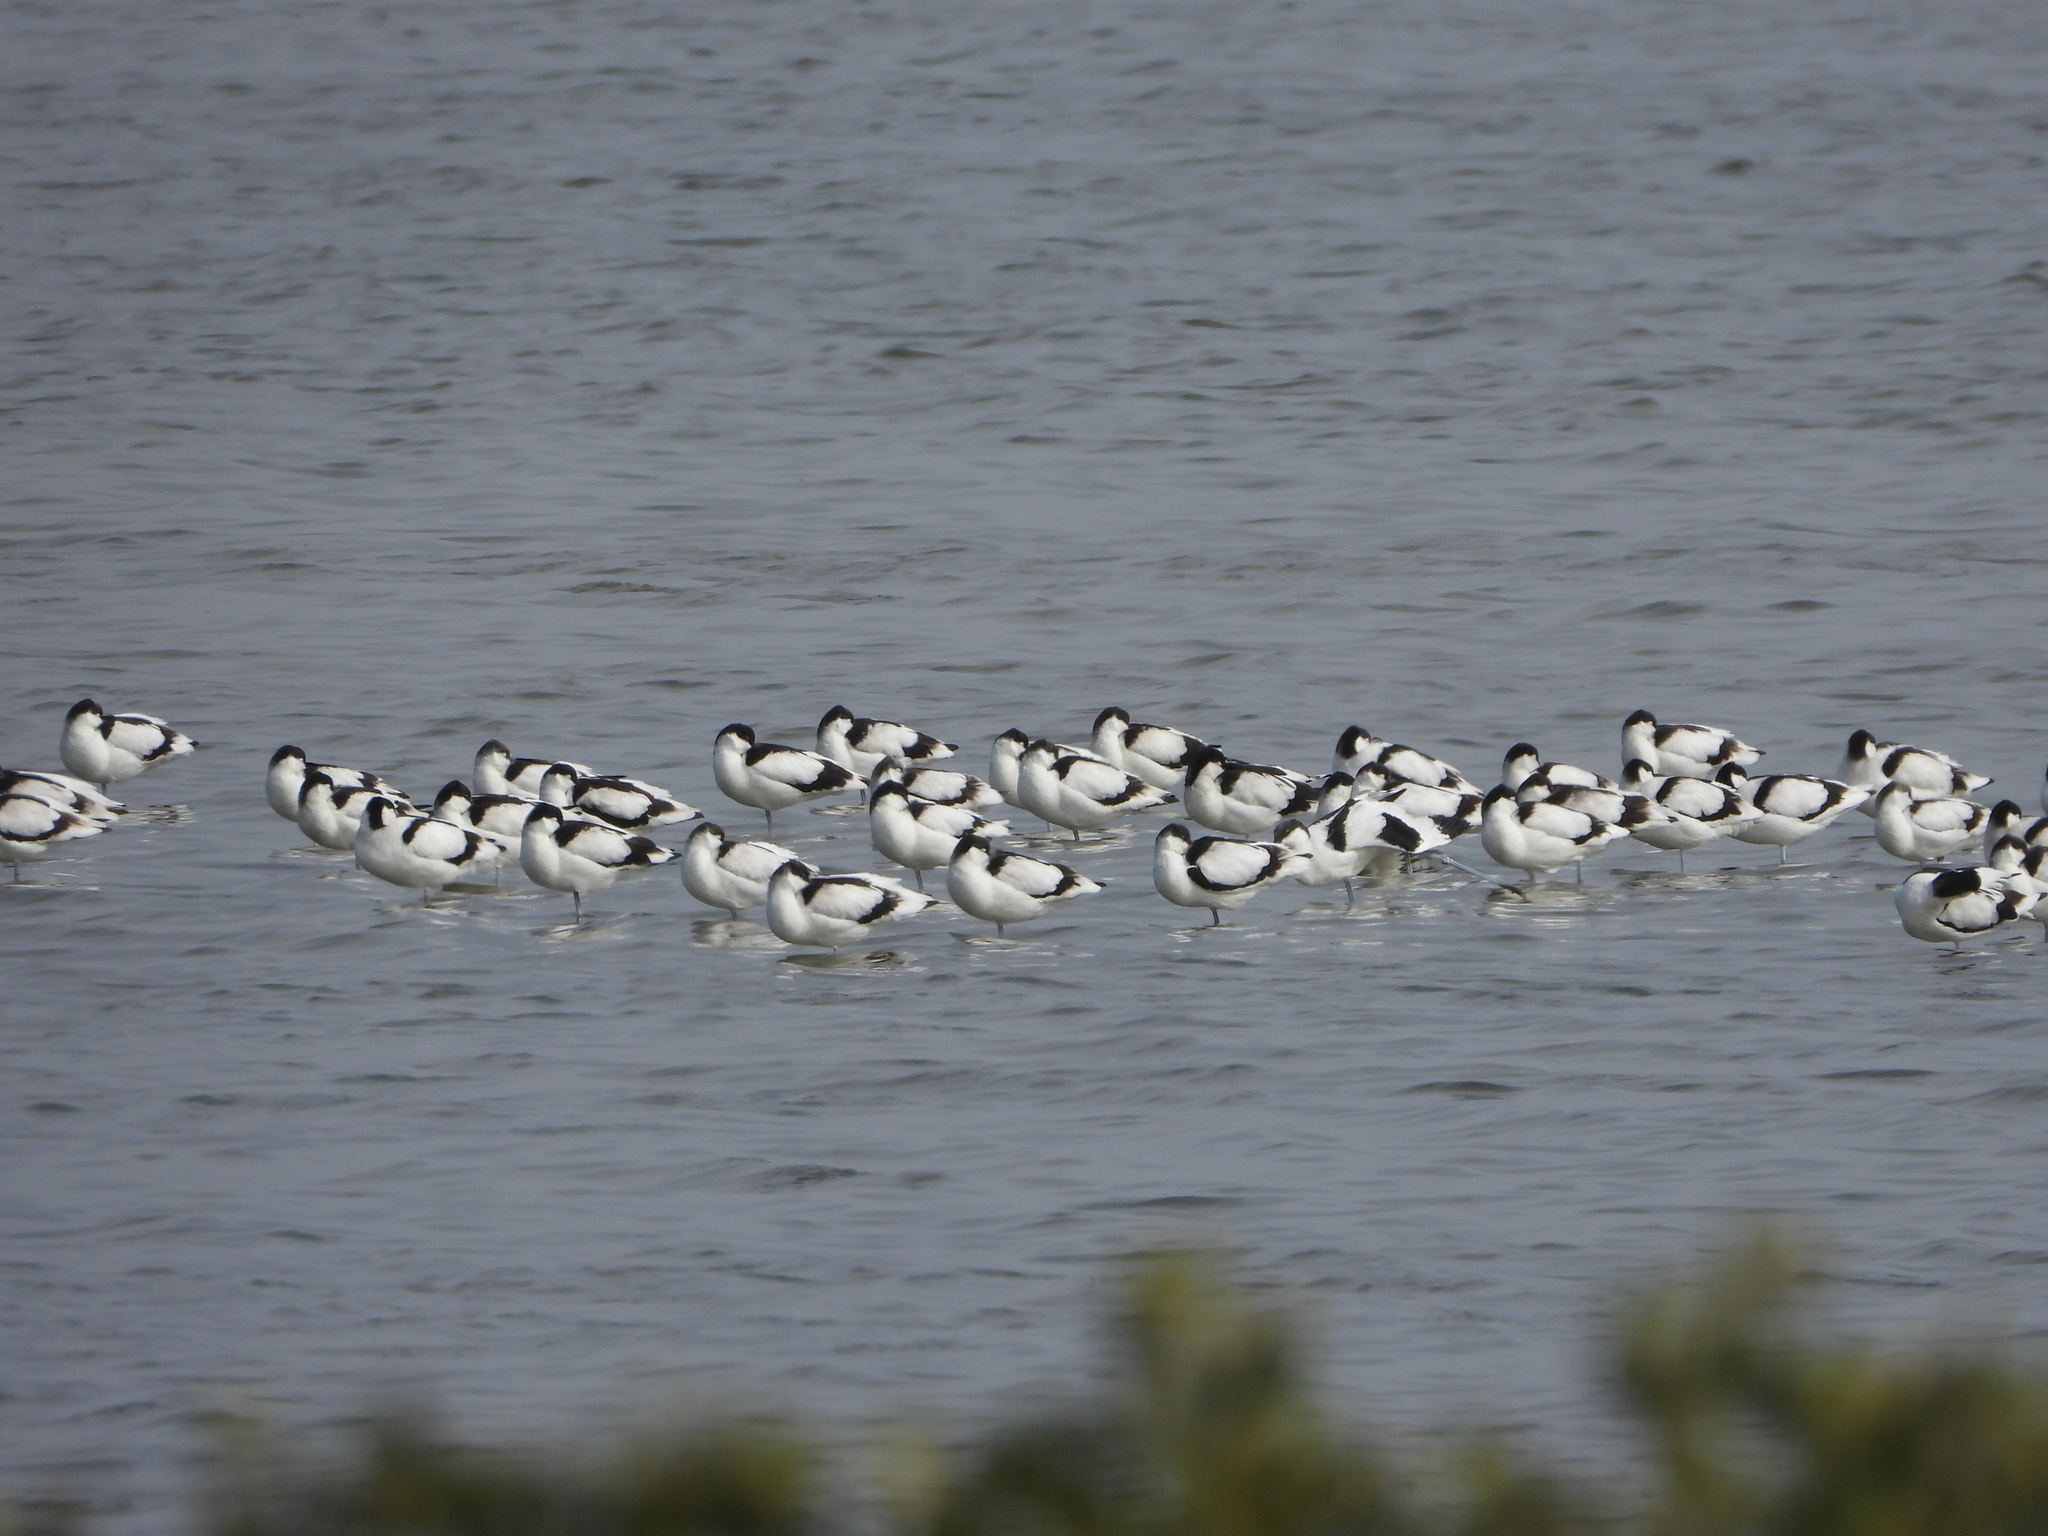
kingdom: Animalia
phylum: Chordata
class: Aves
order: Charadriiformes
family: Recurvirostridae
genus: Recurvirostra
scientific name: Recurvirostra avosetta
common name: Pied avocet
